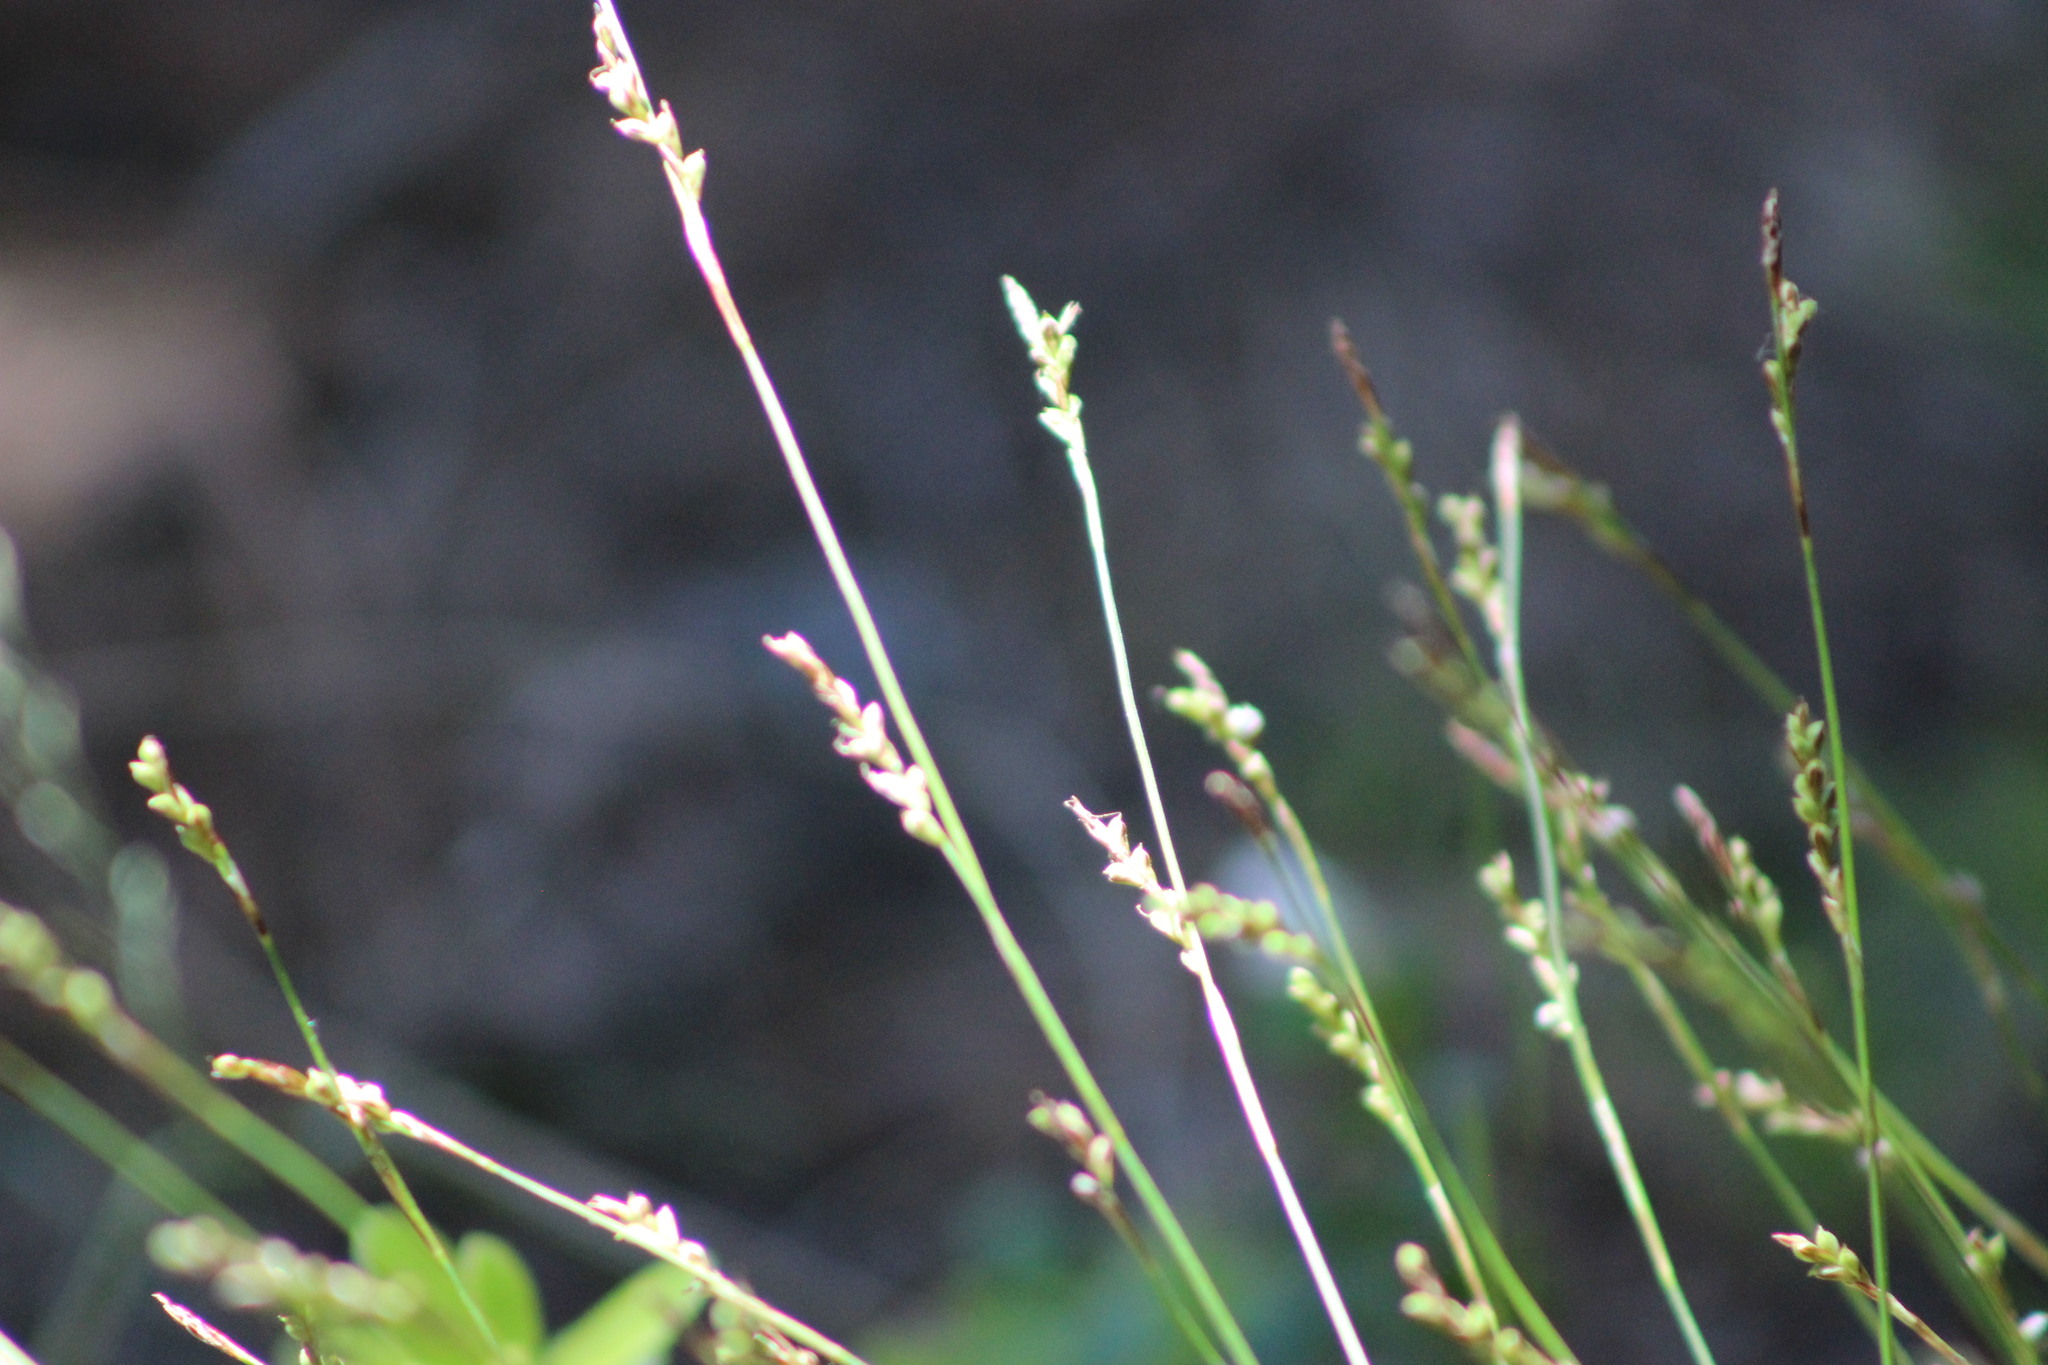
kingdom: Plantae
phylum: Tracheophyta
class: Liliopsida
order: Poales
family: Cyperaceae
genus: Carex
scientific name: Carex pediformis
